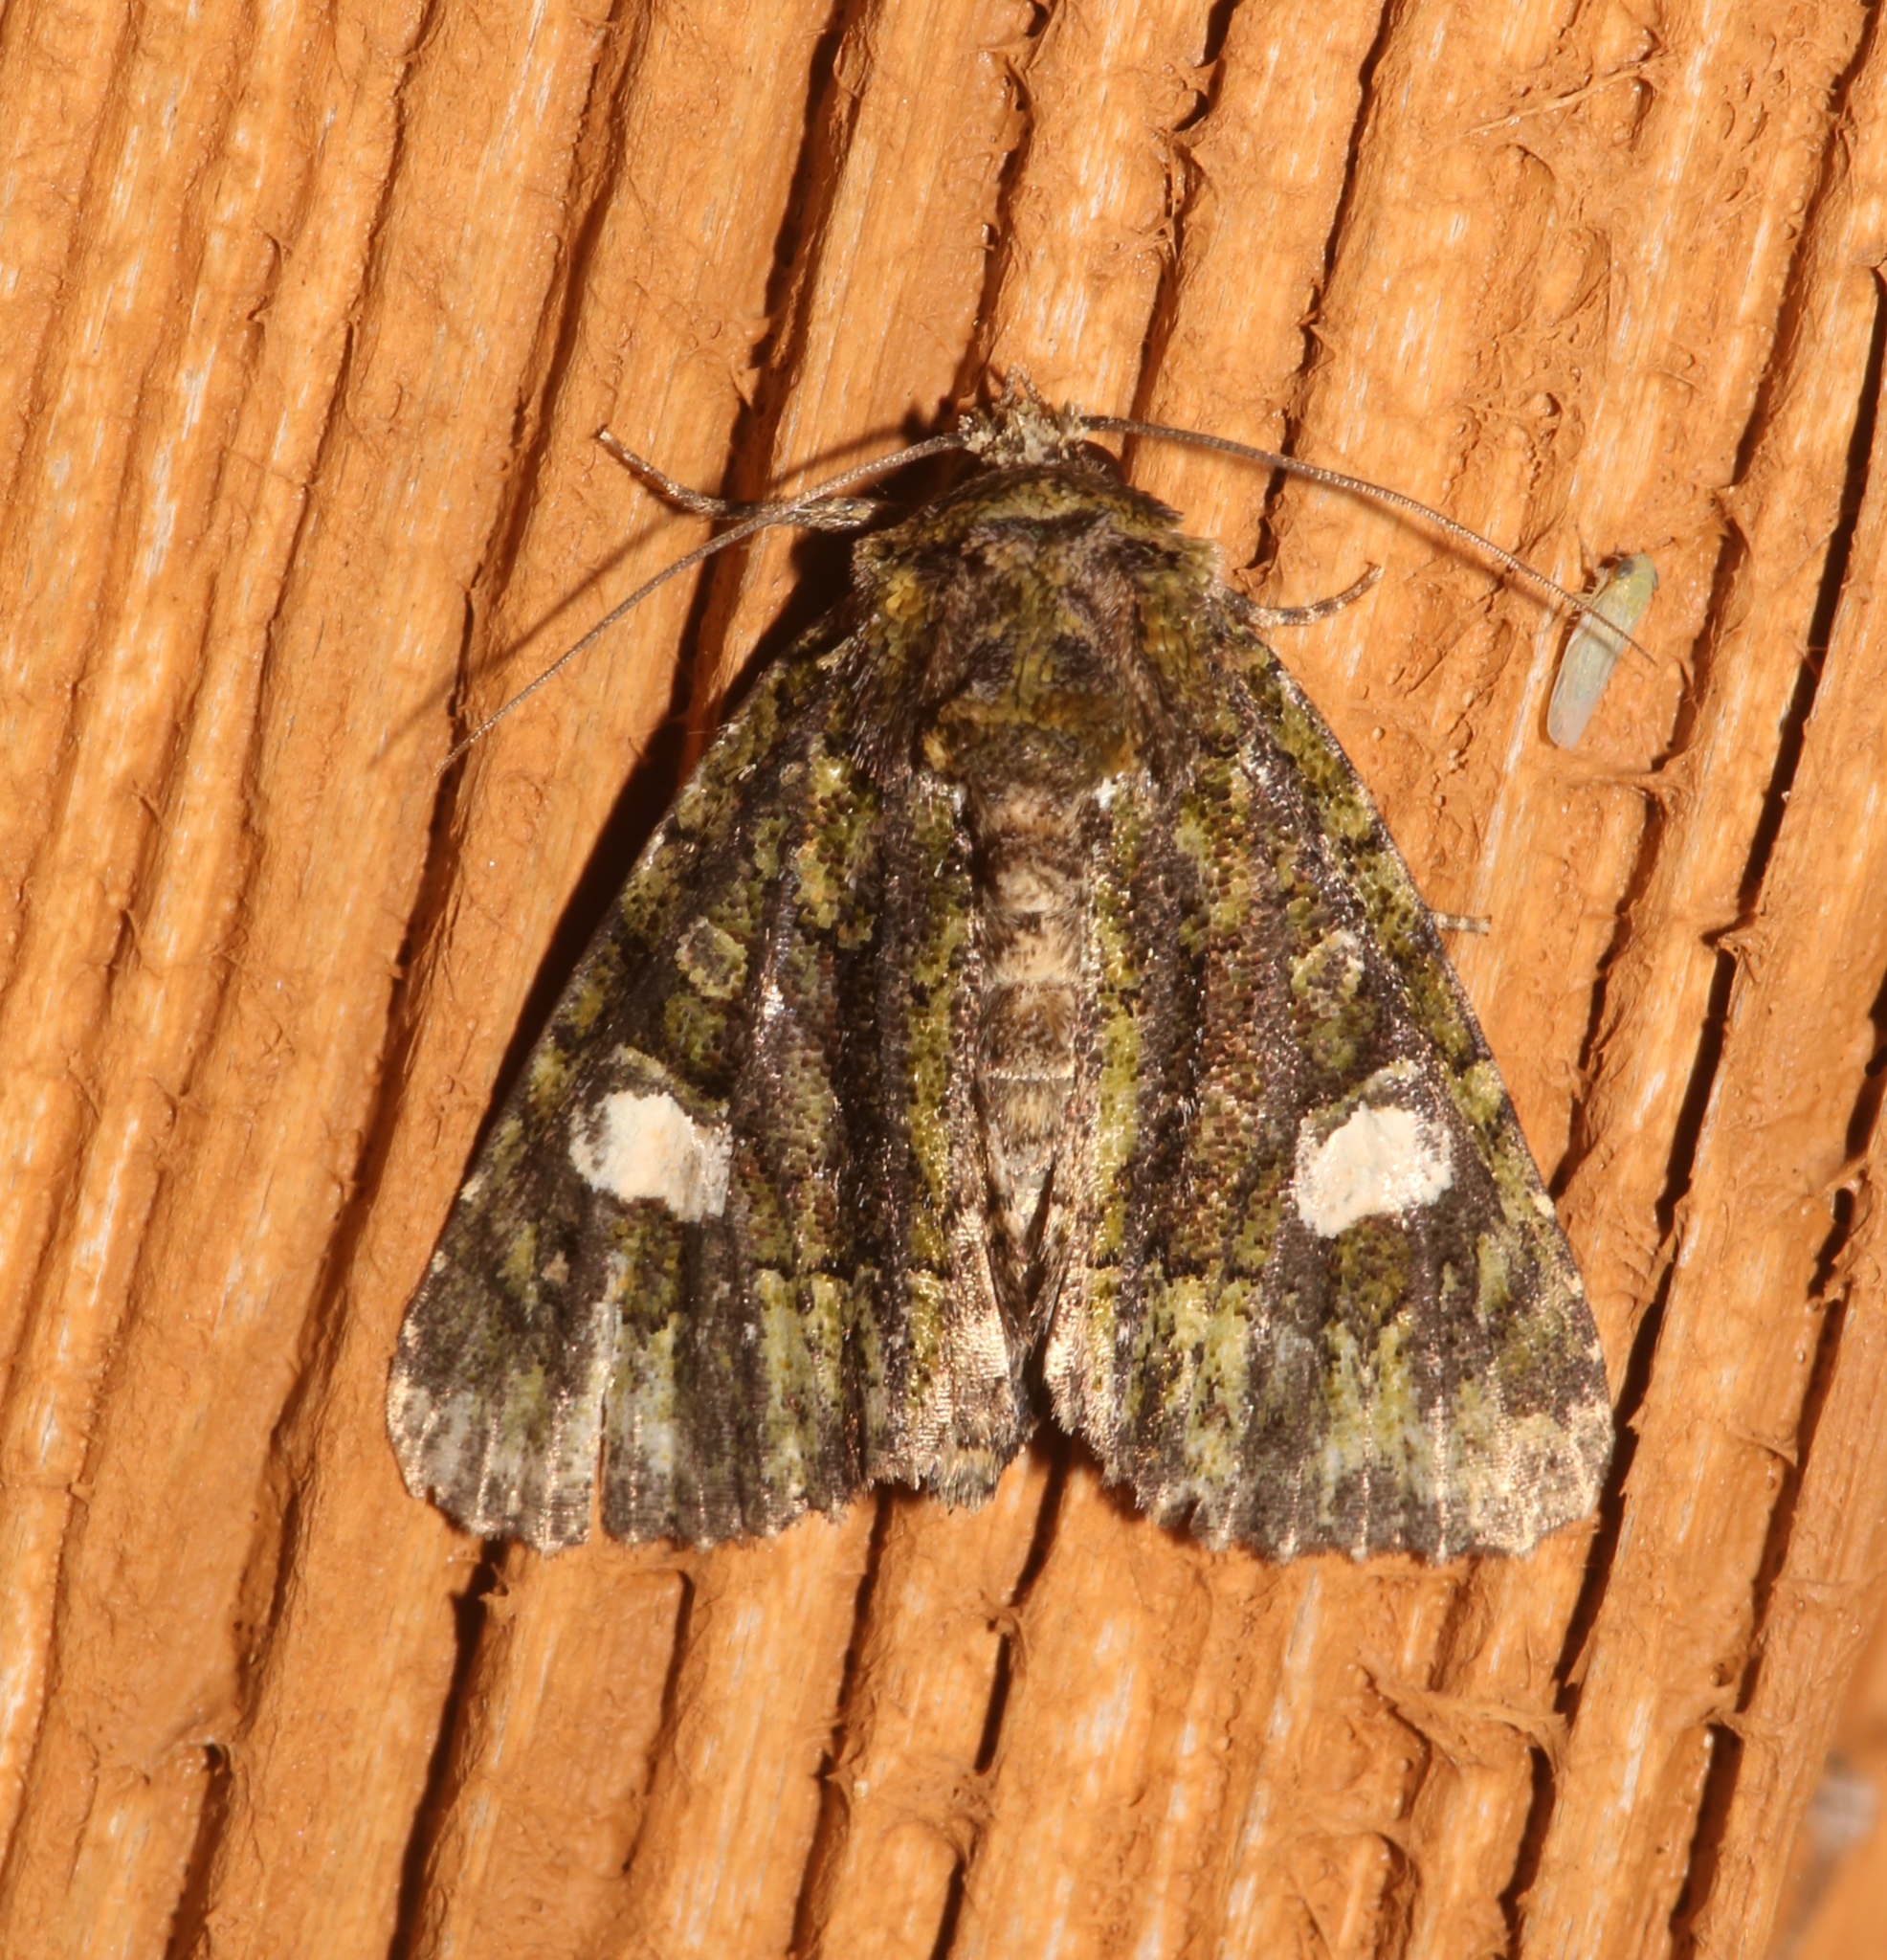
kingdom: Animalia
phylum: Arthropoda
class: Insecta
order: Lepidoptera
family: Noctuidae
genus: Phosphila
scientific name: Phosphila miselioides
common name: Spotted phosphila moth
